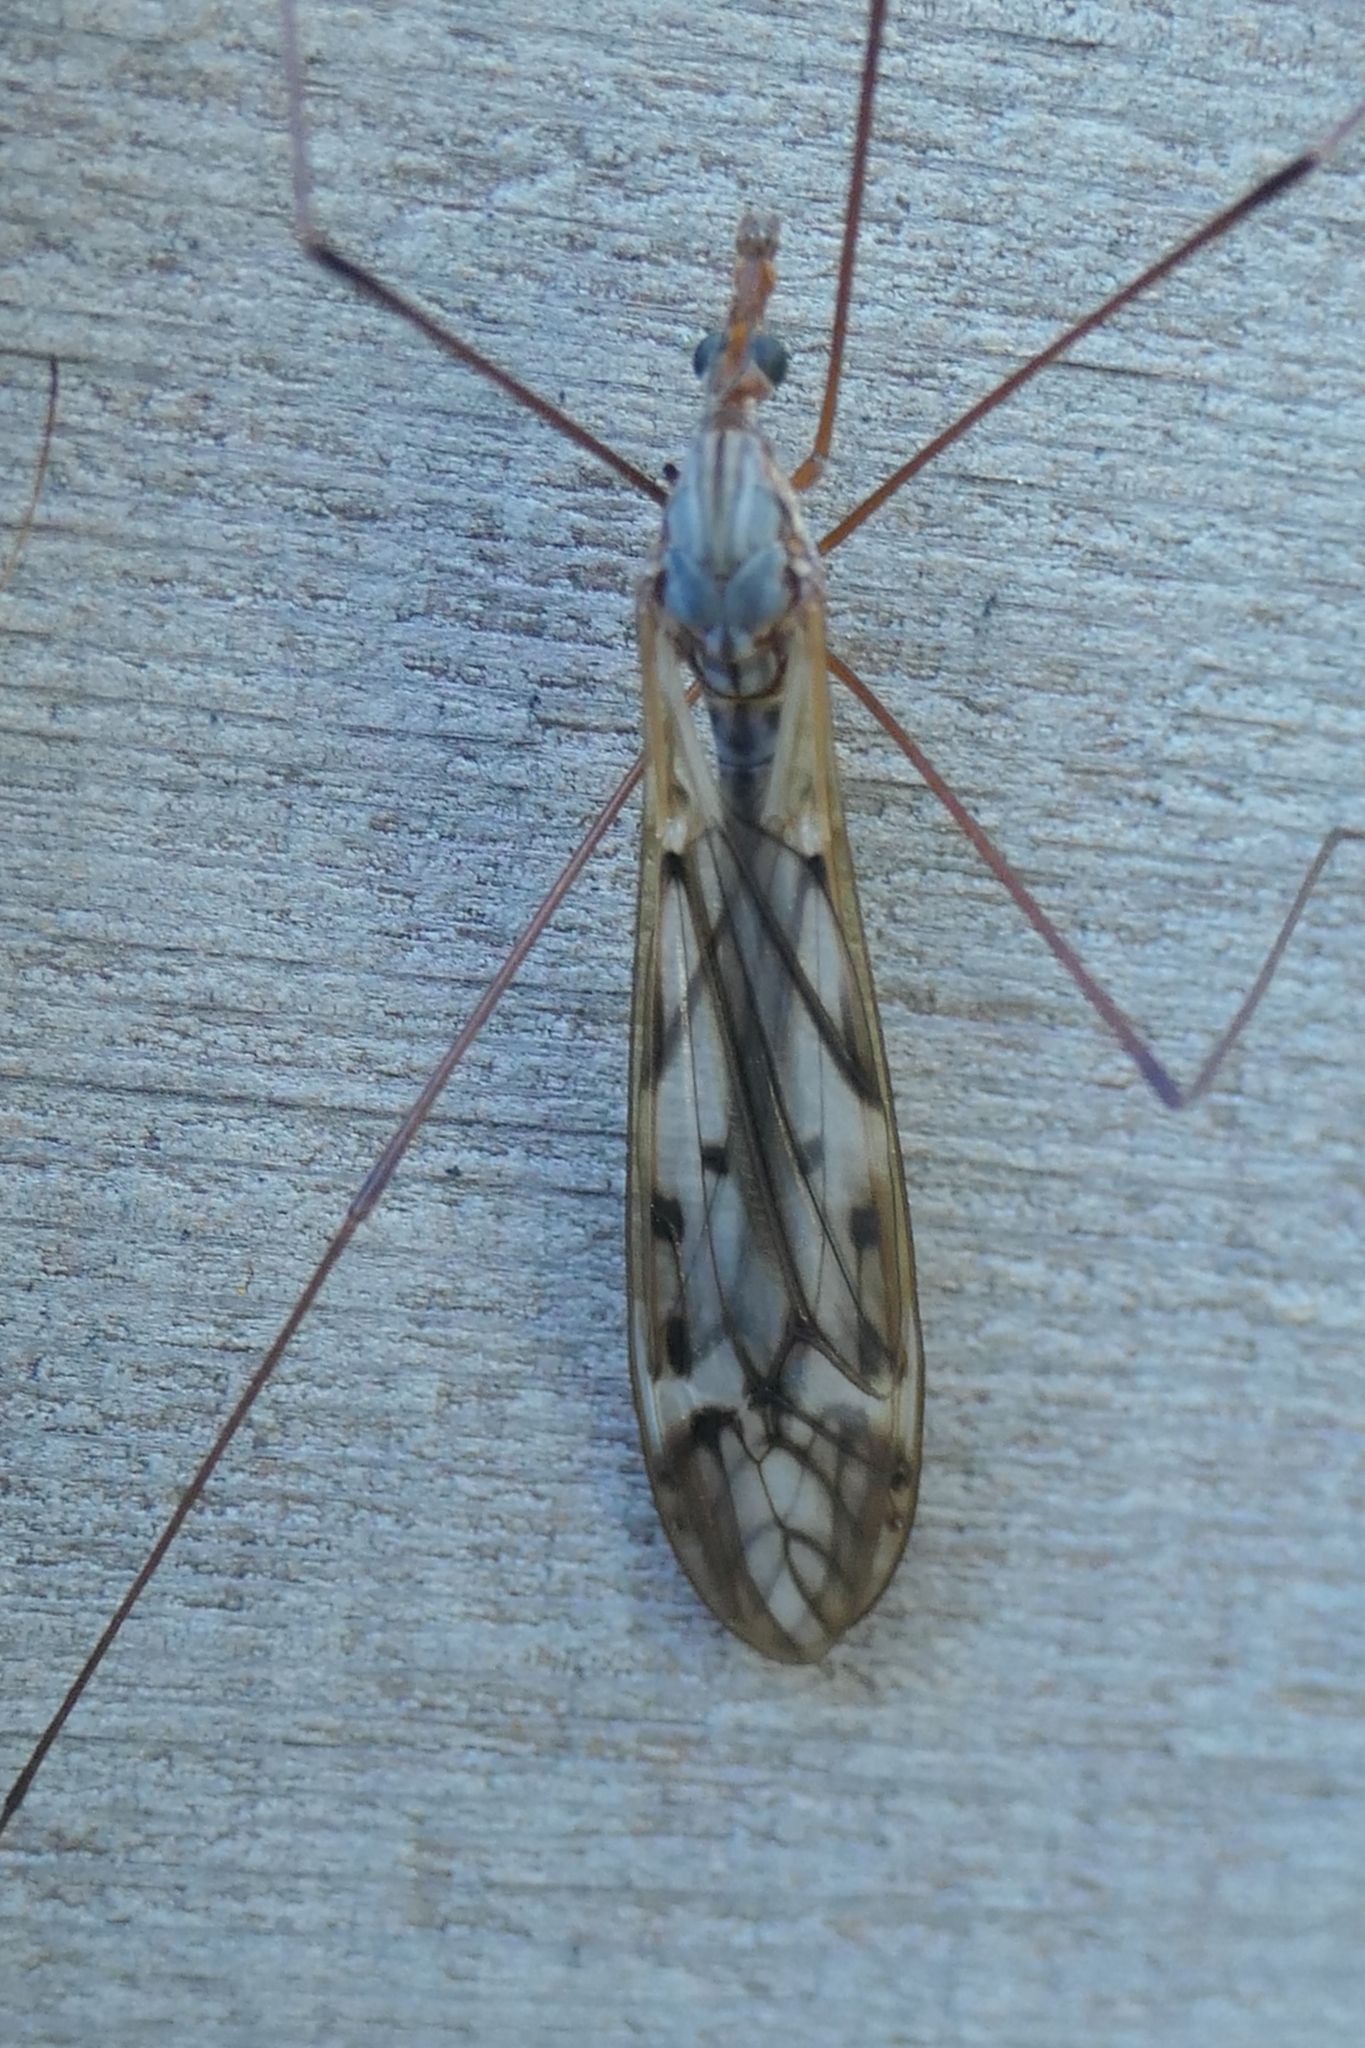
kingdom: Animalia
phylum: Arthropoda
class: Insecta
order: Diptera
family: Tipulidae
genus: Zelandotipula
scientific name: Zelandotipula novarae
